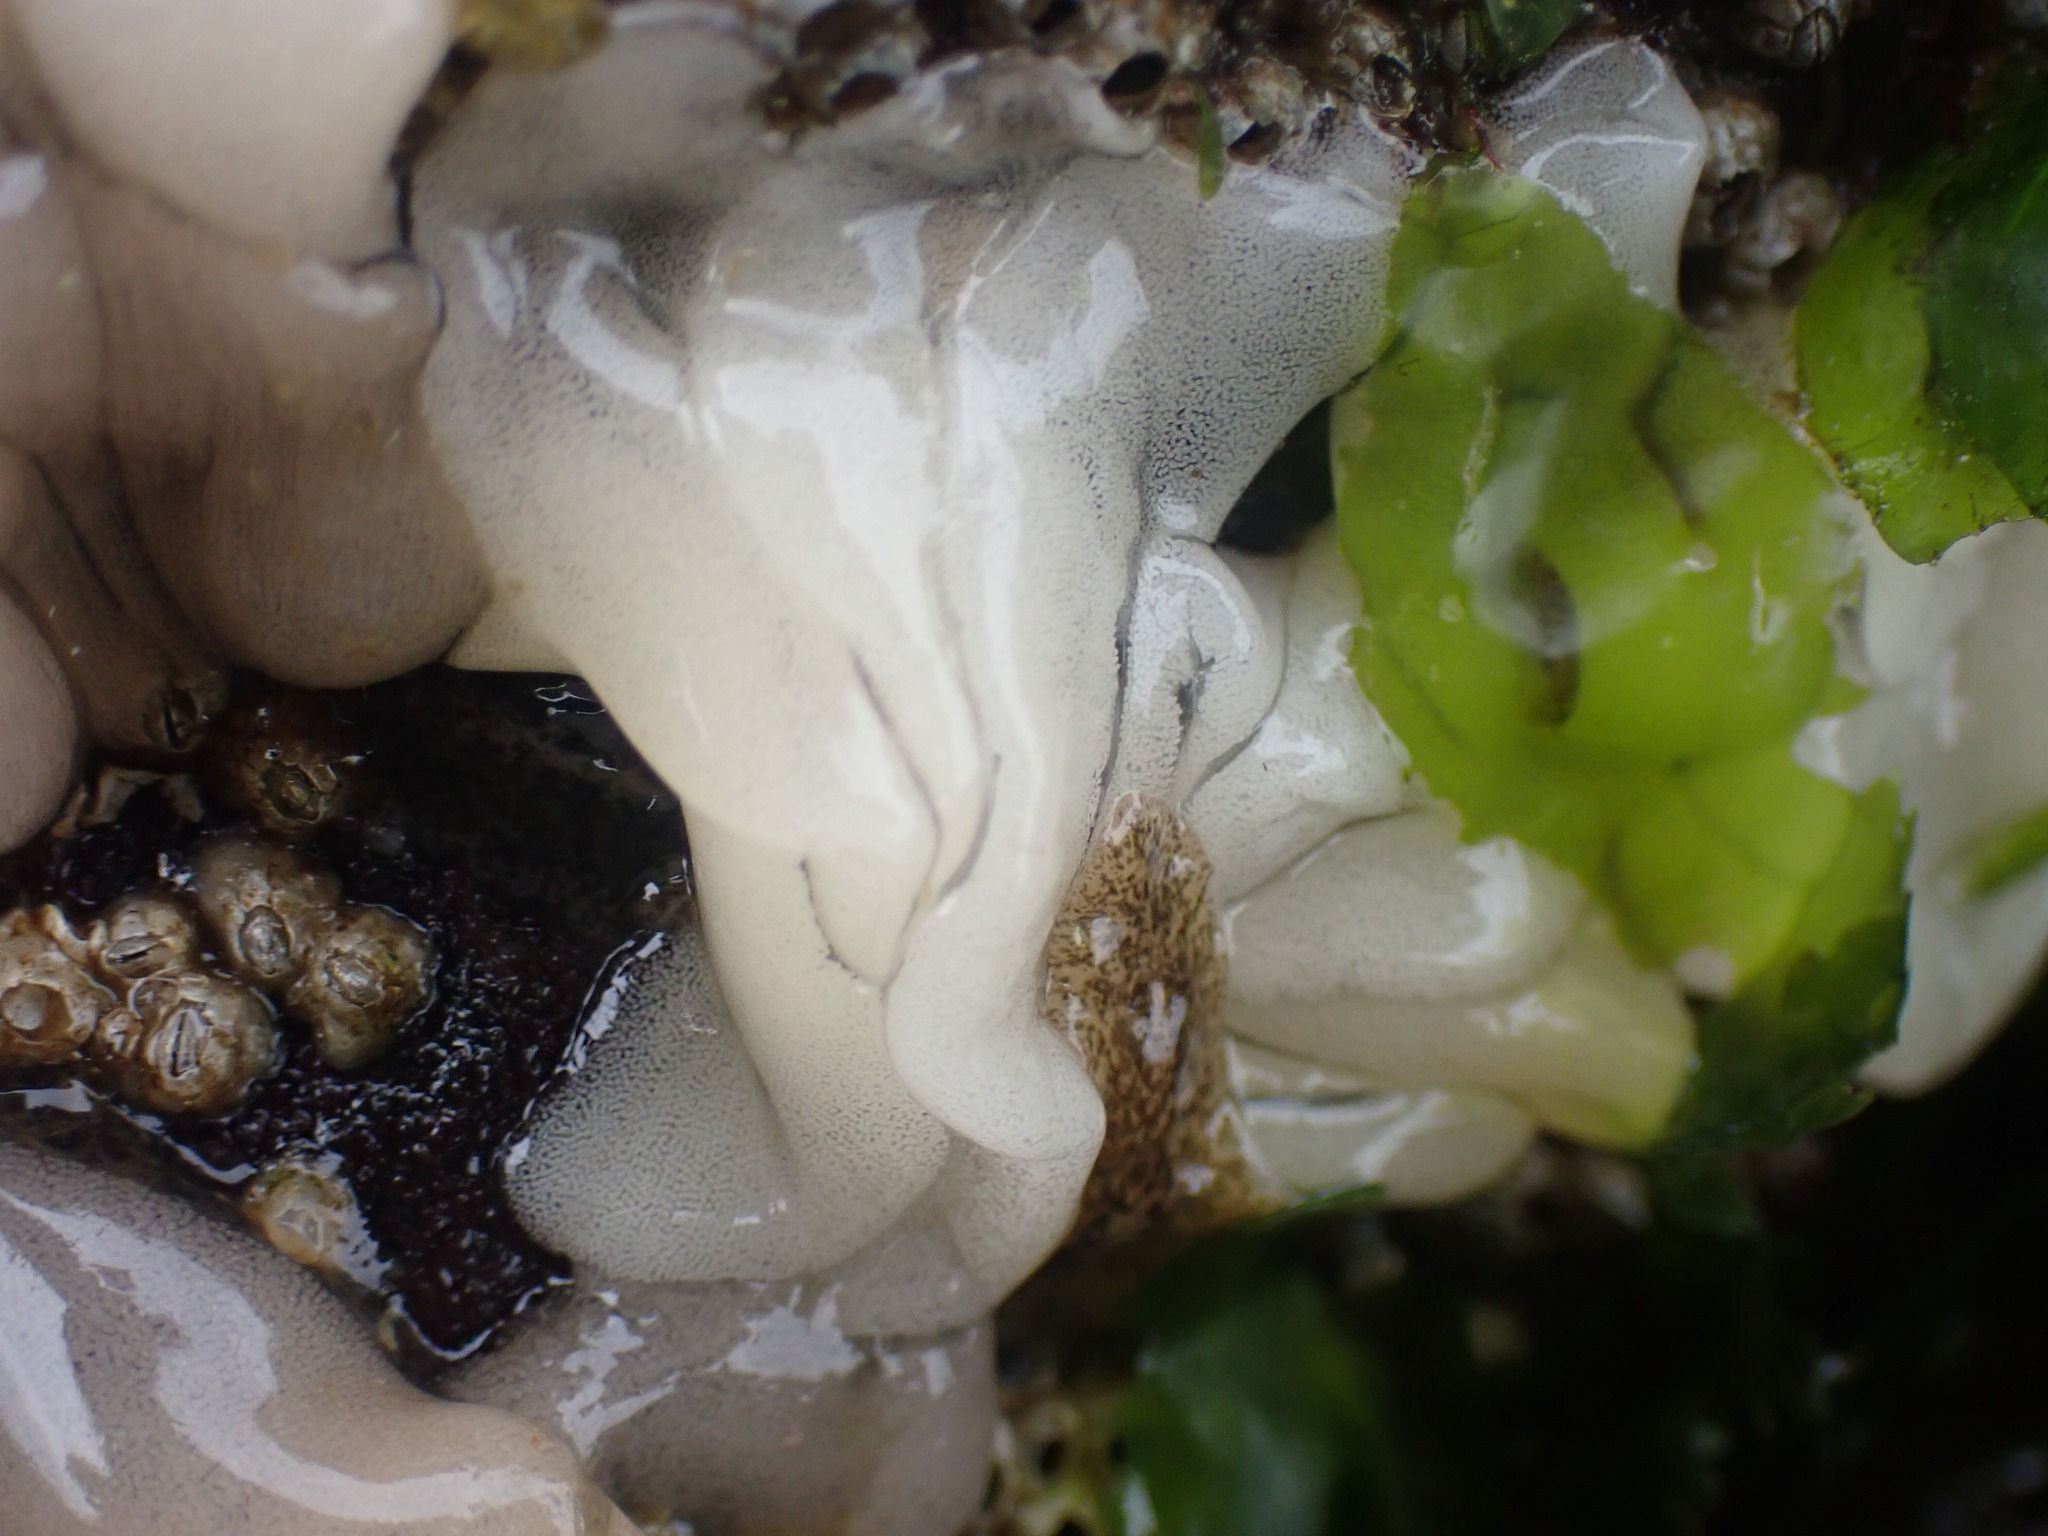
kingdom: Animalia
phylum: Mollusca
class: Gastropoda
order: Nudibranchia
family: Onchidorididae
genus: Onchidoris
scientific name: Onchidoris bilamellata
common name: Barnacle-eating onchidoris
